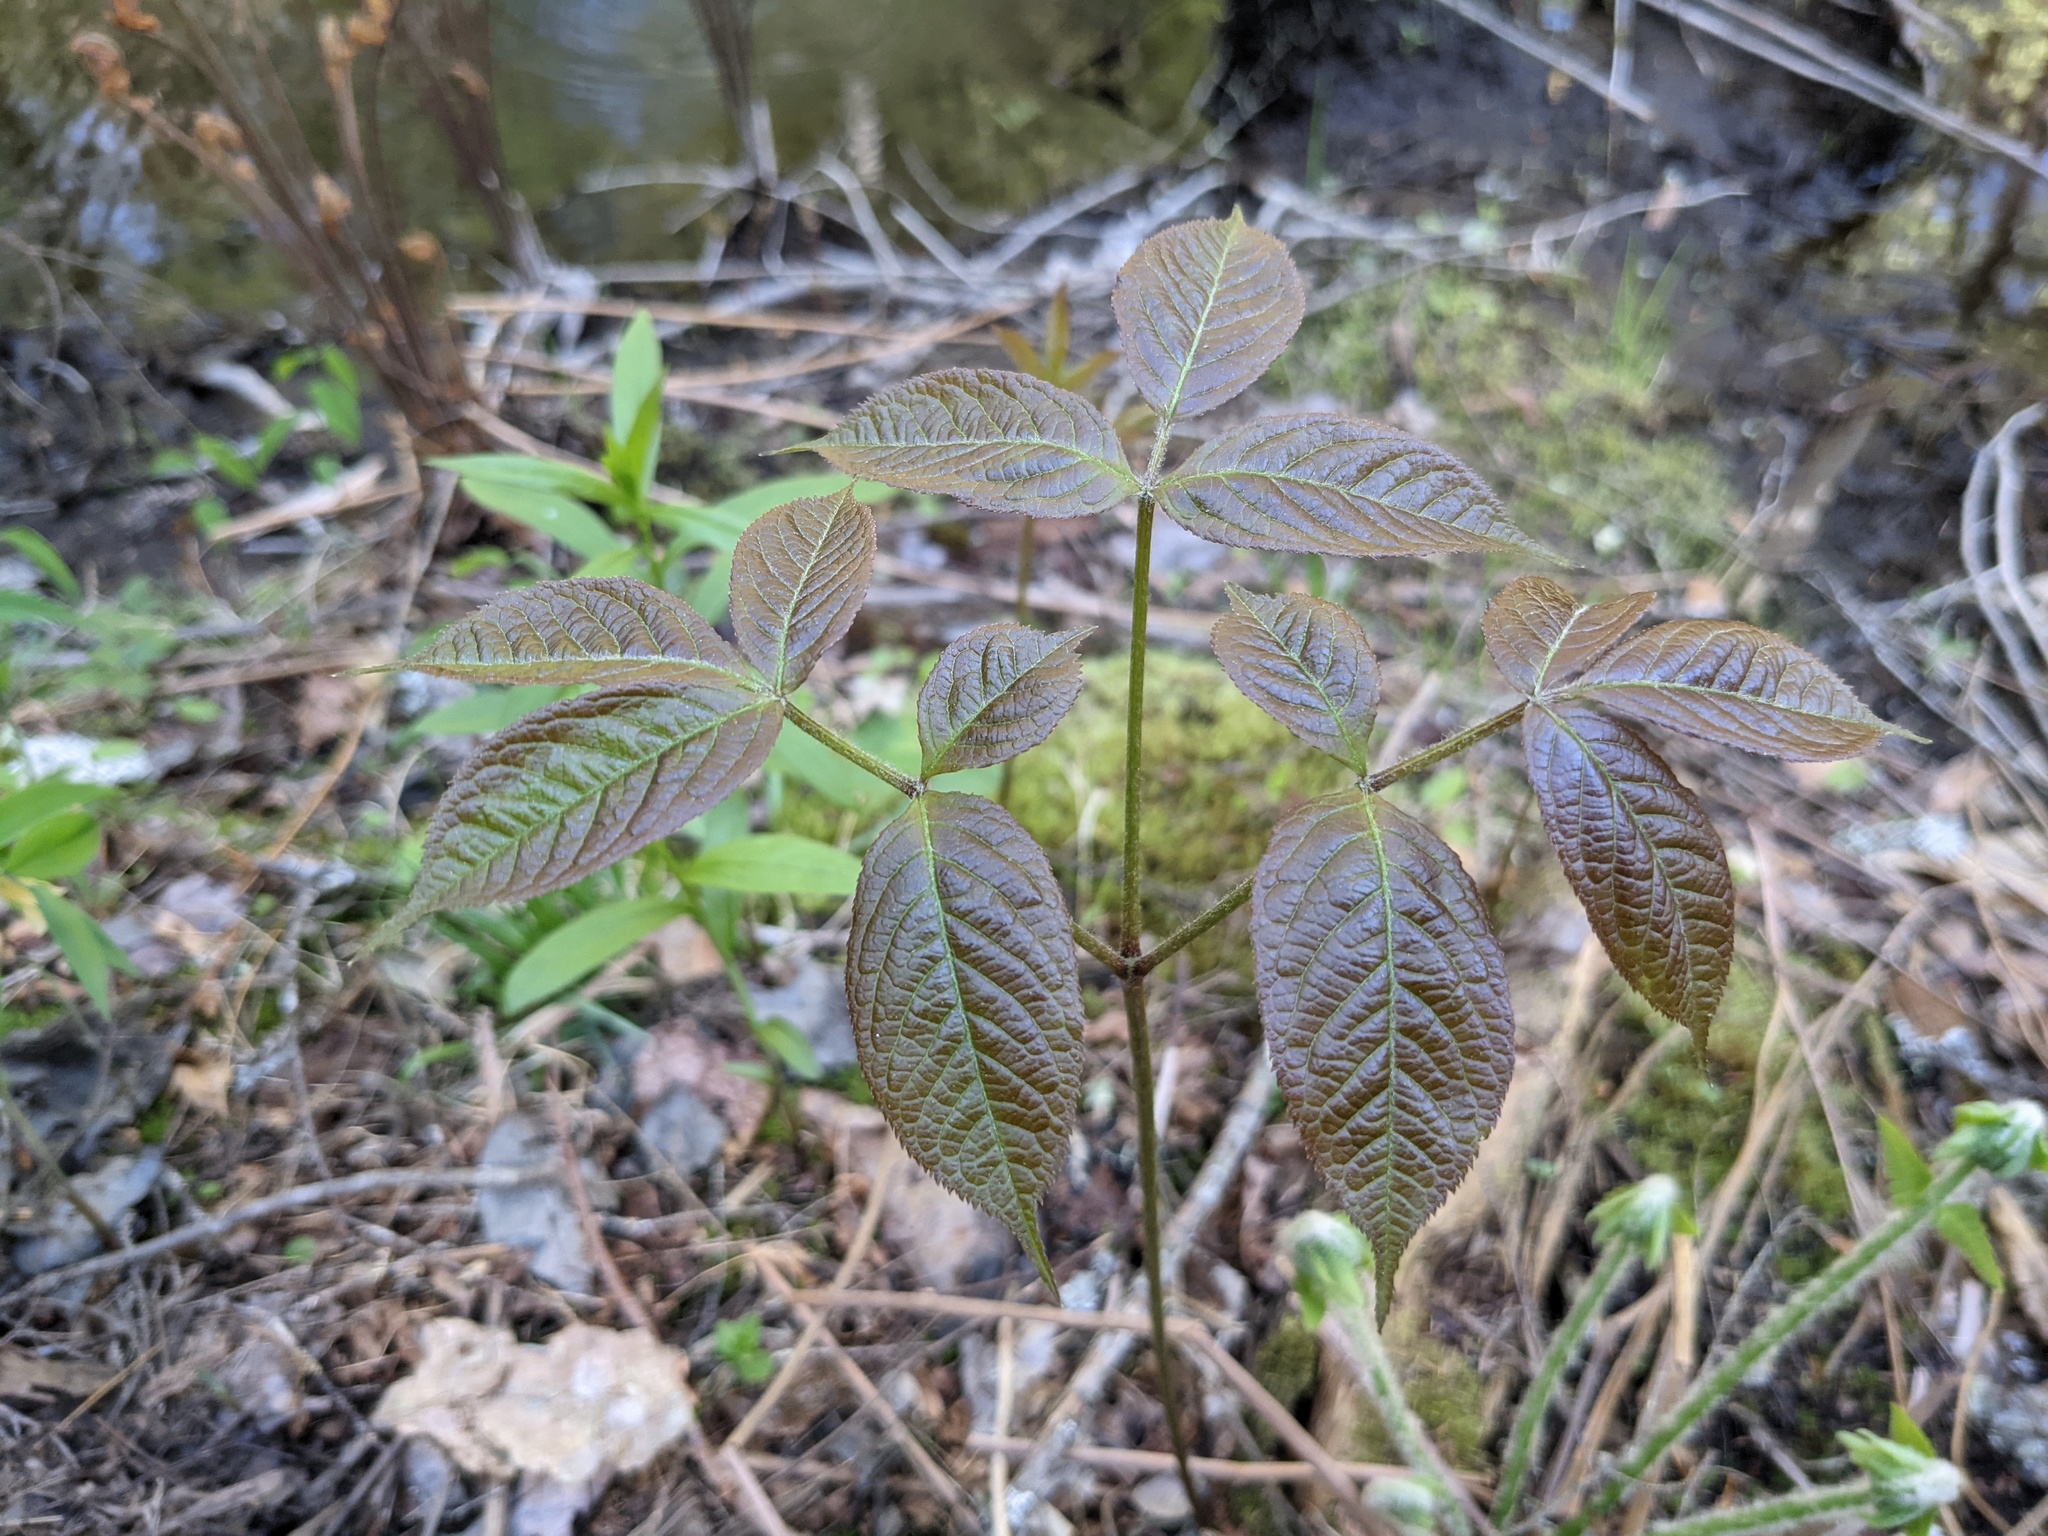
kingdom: Plantae
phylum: Tracheophyta
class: Magnoliopsida
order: Apiales
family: Araliaceae
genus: Aralia
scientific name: Aralia nudicaulis
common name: Wild sarsaparilla
